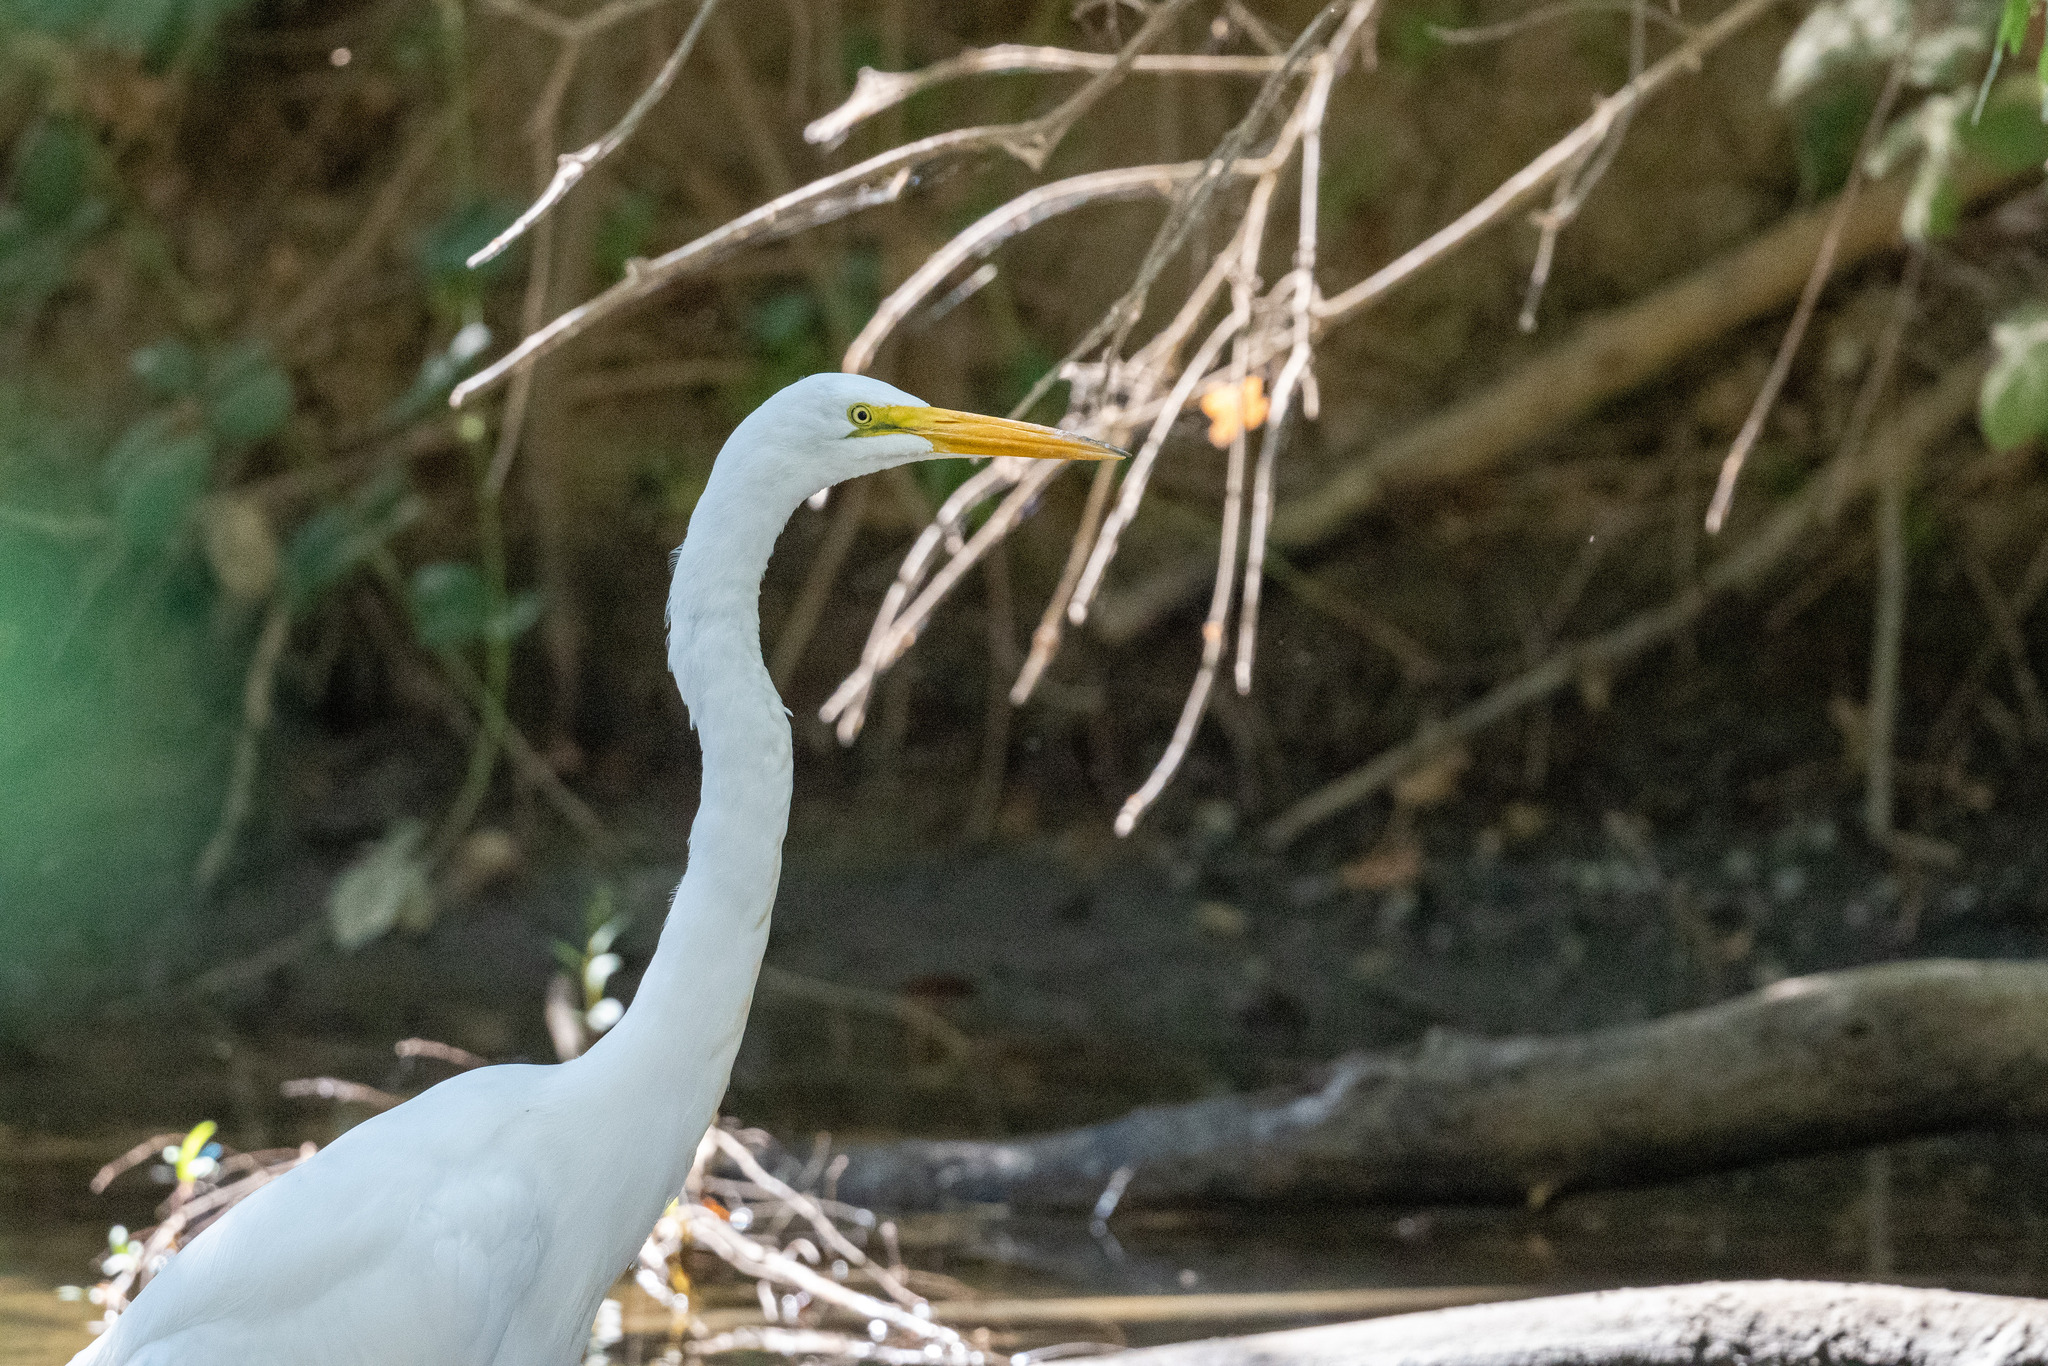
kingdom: Animalia
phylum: Chordata
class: Aves
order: Pelecaniformes
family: Ardeidae
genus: Ardea
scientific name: Ardea alba
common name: Great egret
